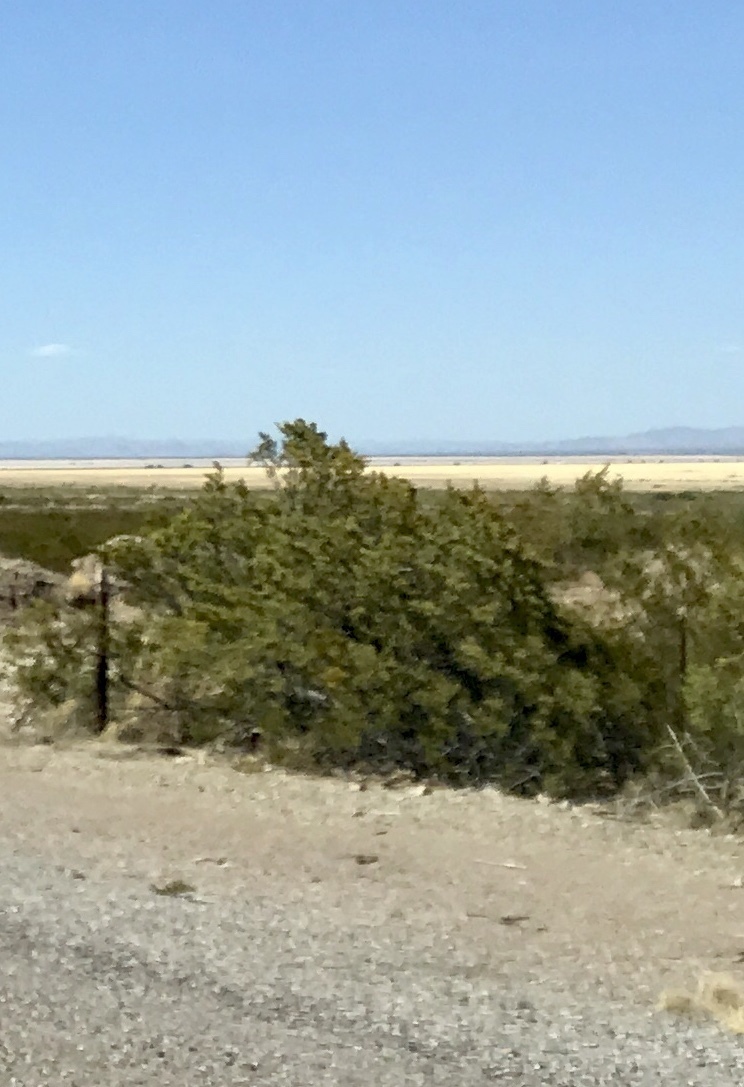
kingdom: Plantae
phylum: Tracheophyta
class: Magnoliopsida
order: Zygophyllales
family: Zygophyllaceae
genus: Larrea
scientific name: Larrea tridentata
